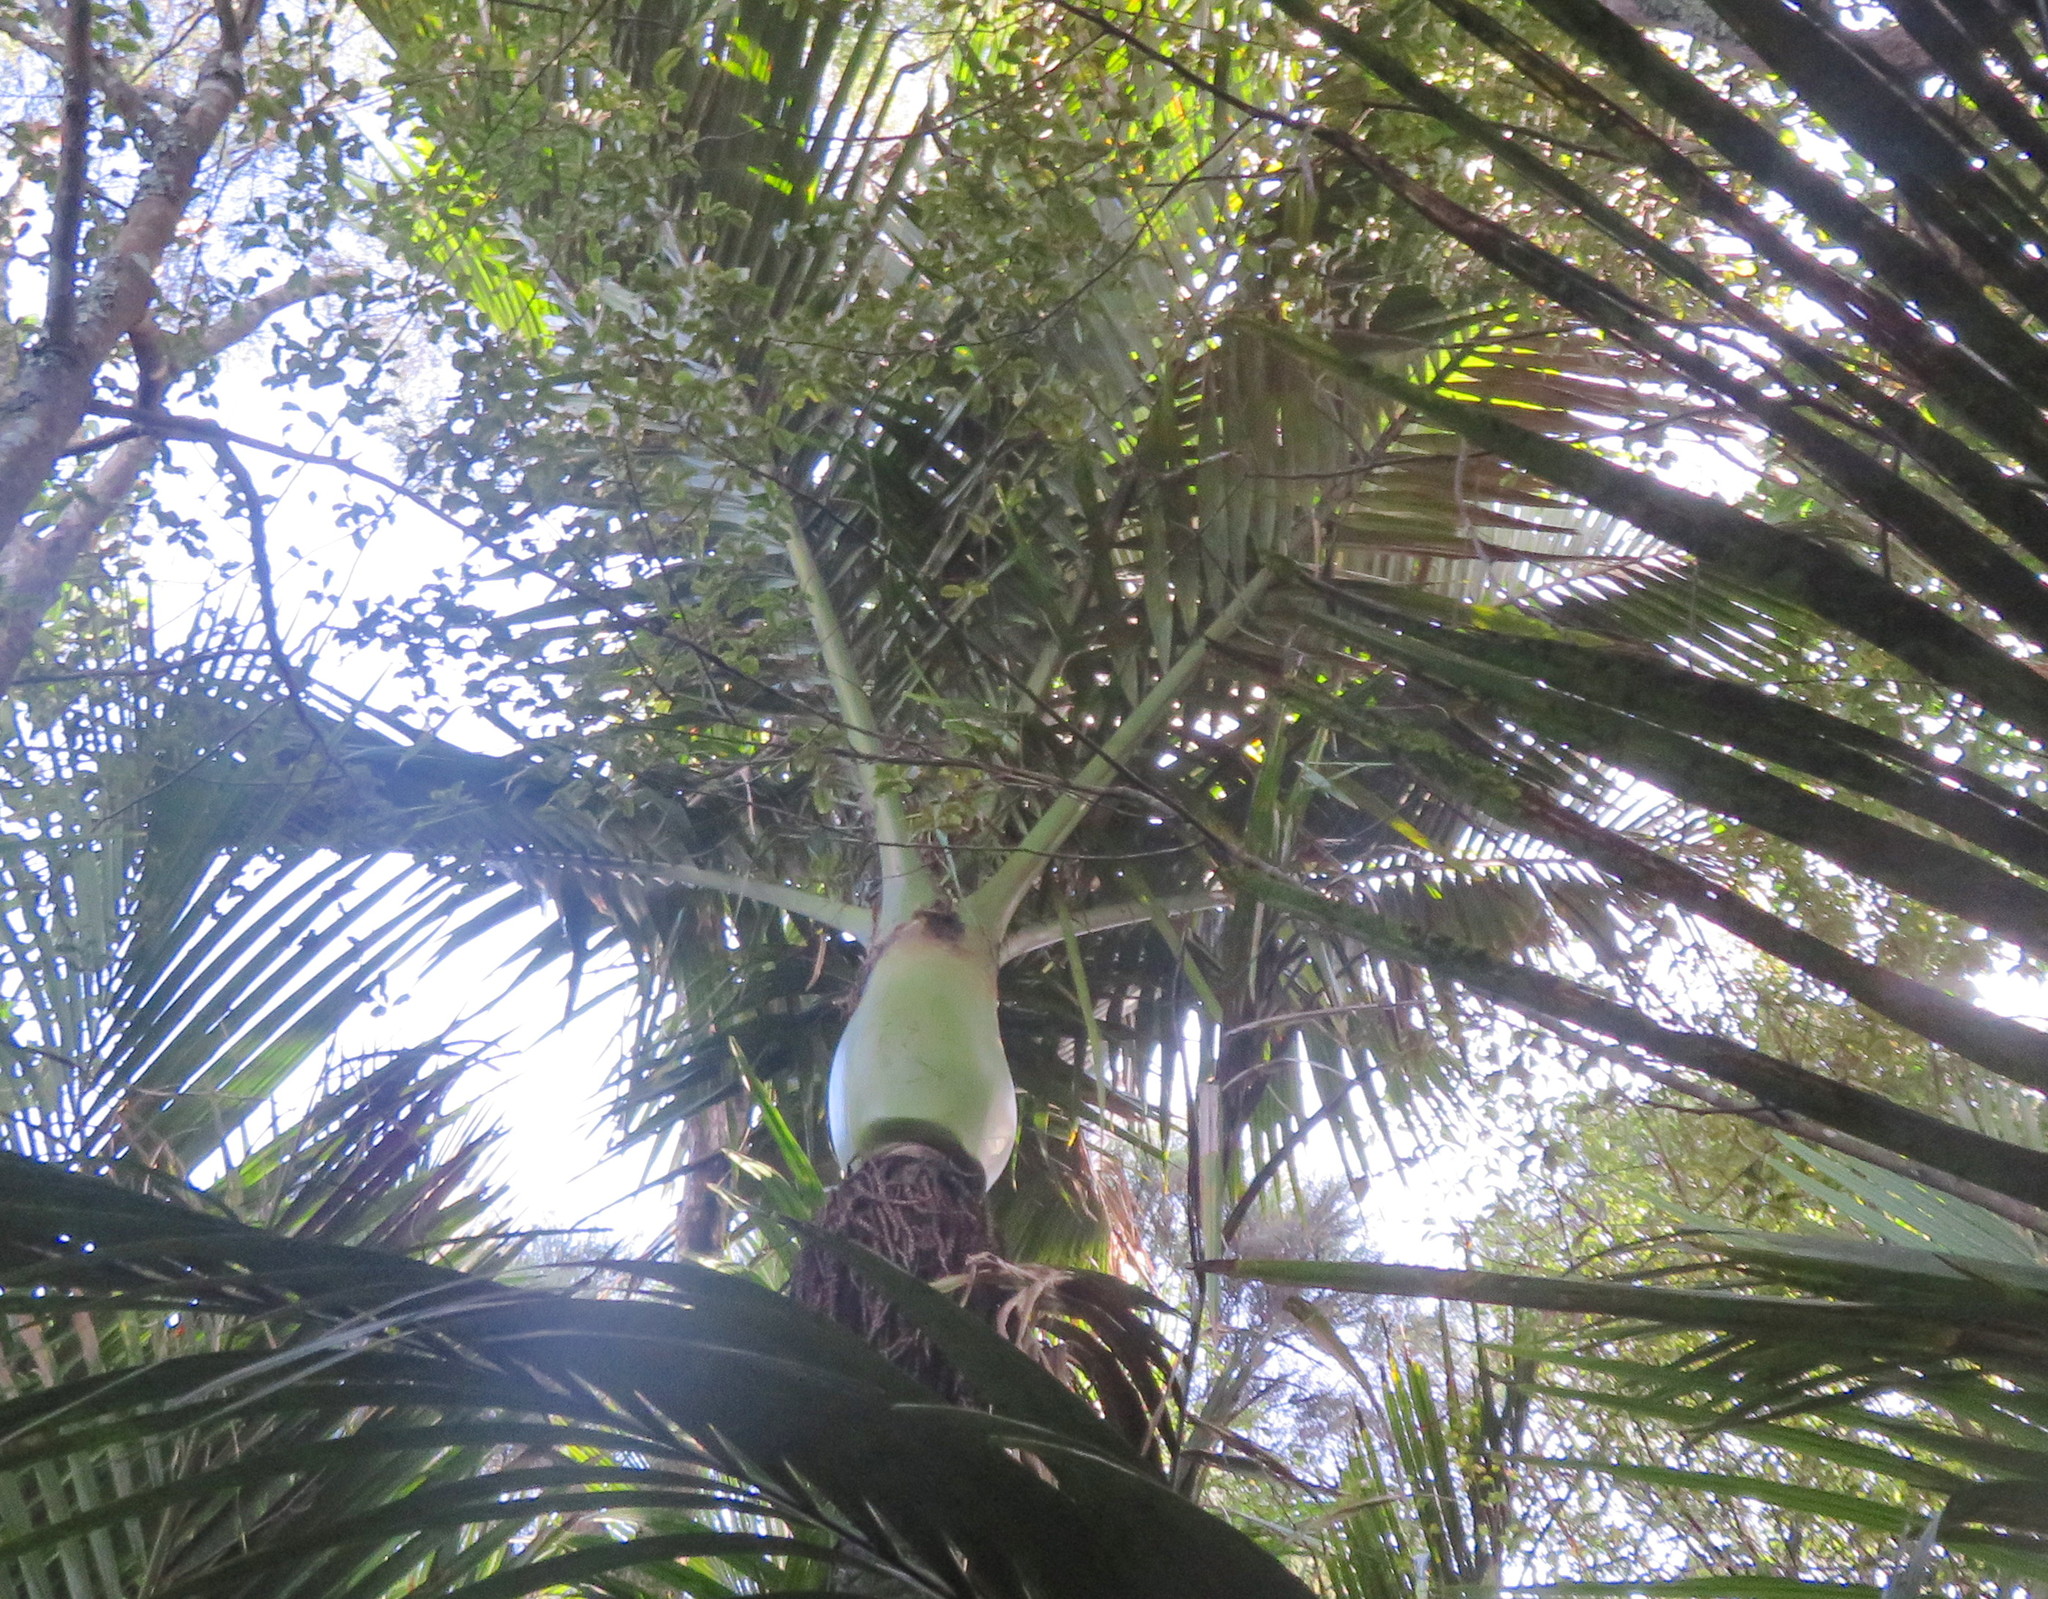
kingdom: Plantae
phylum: Tracheophyta
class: Liliopsida
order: Arecales
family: Arecaceae
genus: Rhopalostylis
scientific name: Rhopalostylis sapida
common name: Feather-duster palm
